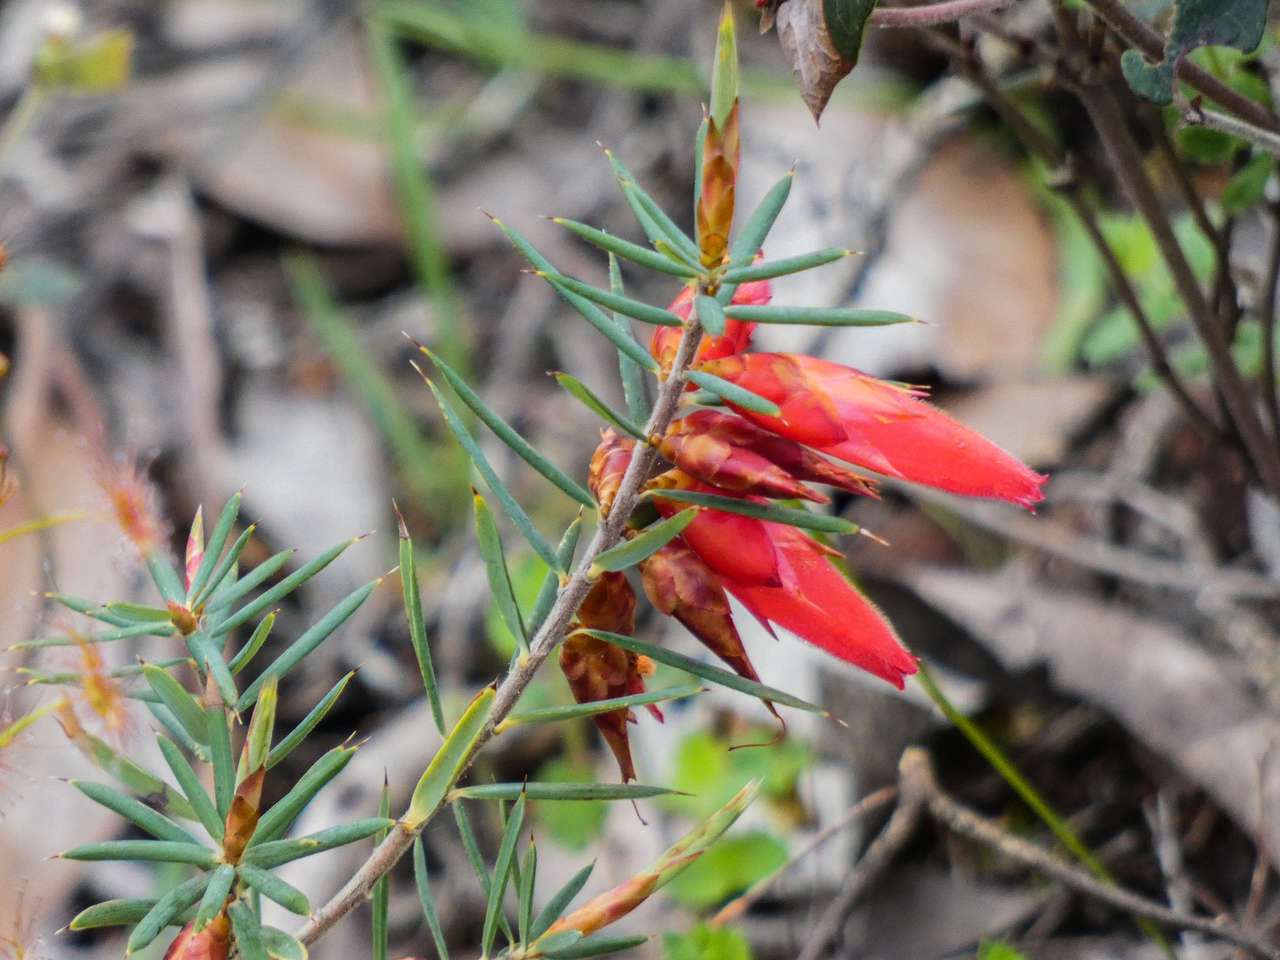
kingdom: Plantae
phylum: Tracheophyta
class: Magnoliopsida
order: Ericales
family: Ericaceae
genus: Stenanthera
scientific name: Stenanthera conostephioides
